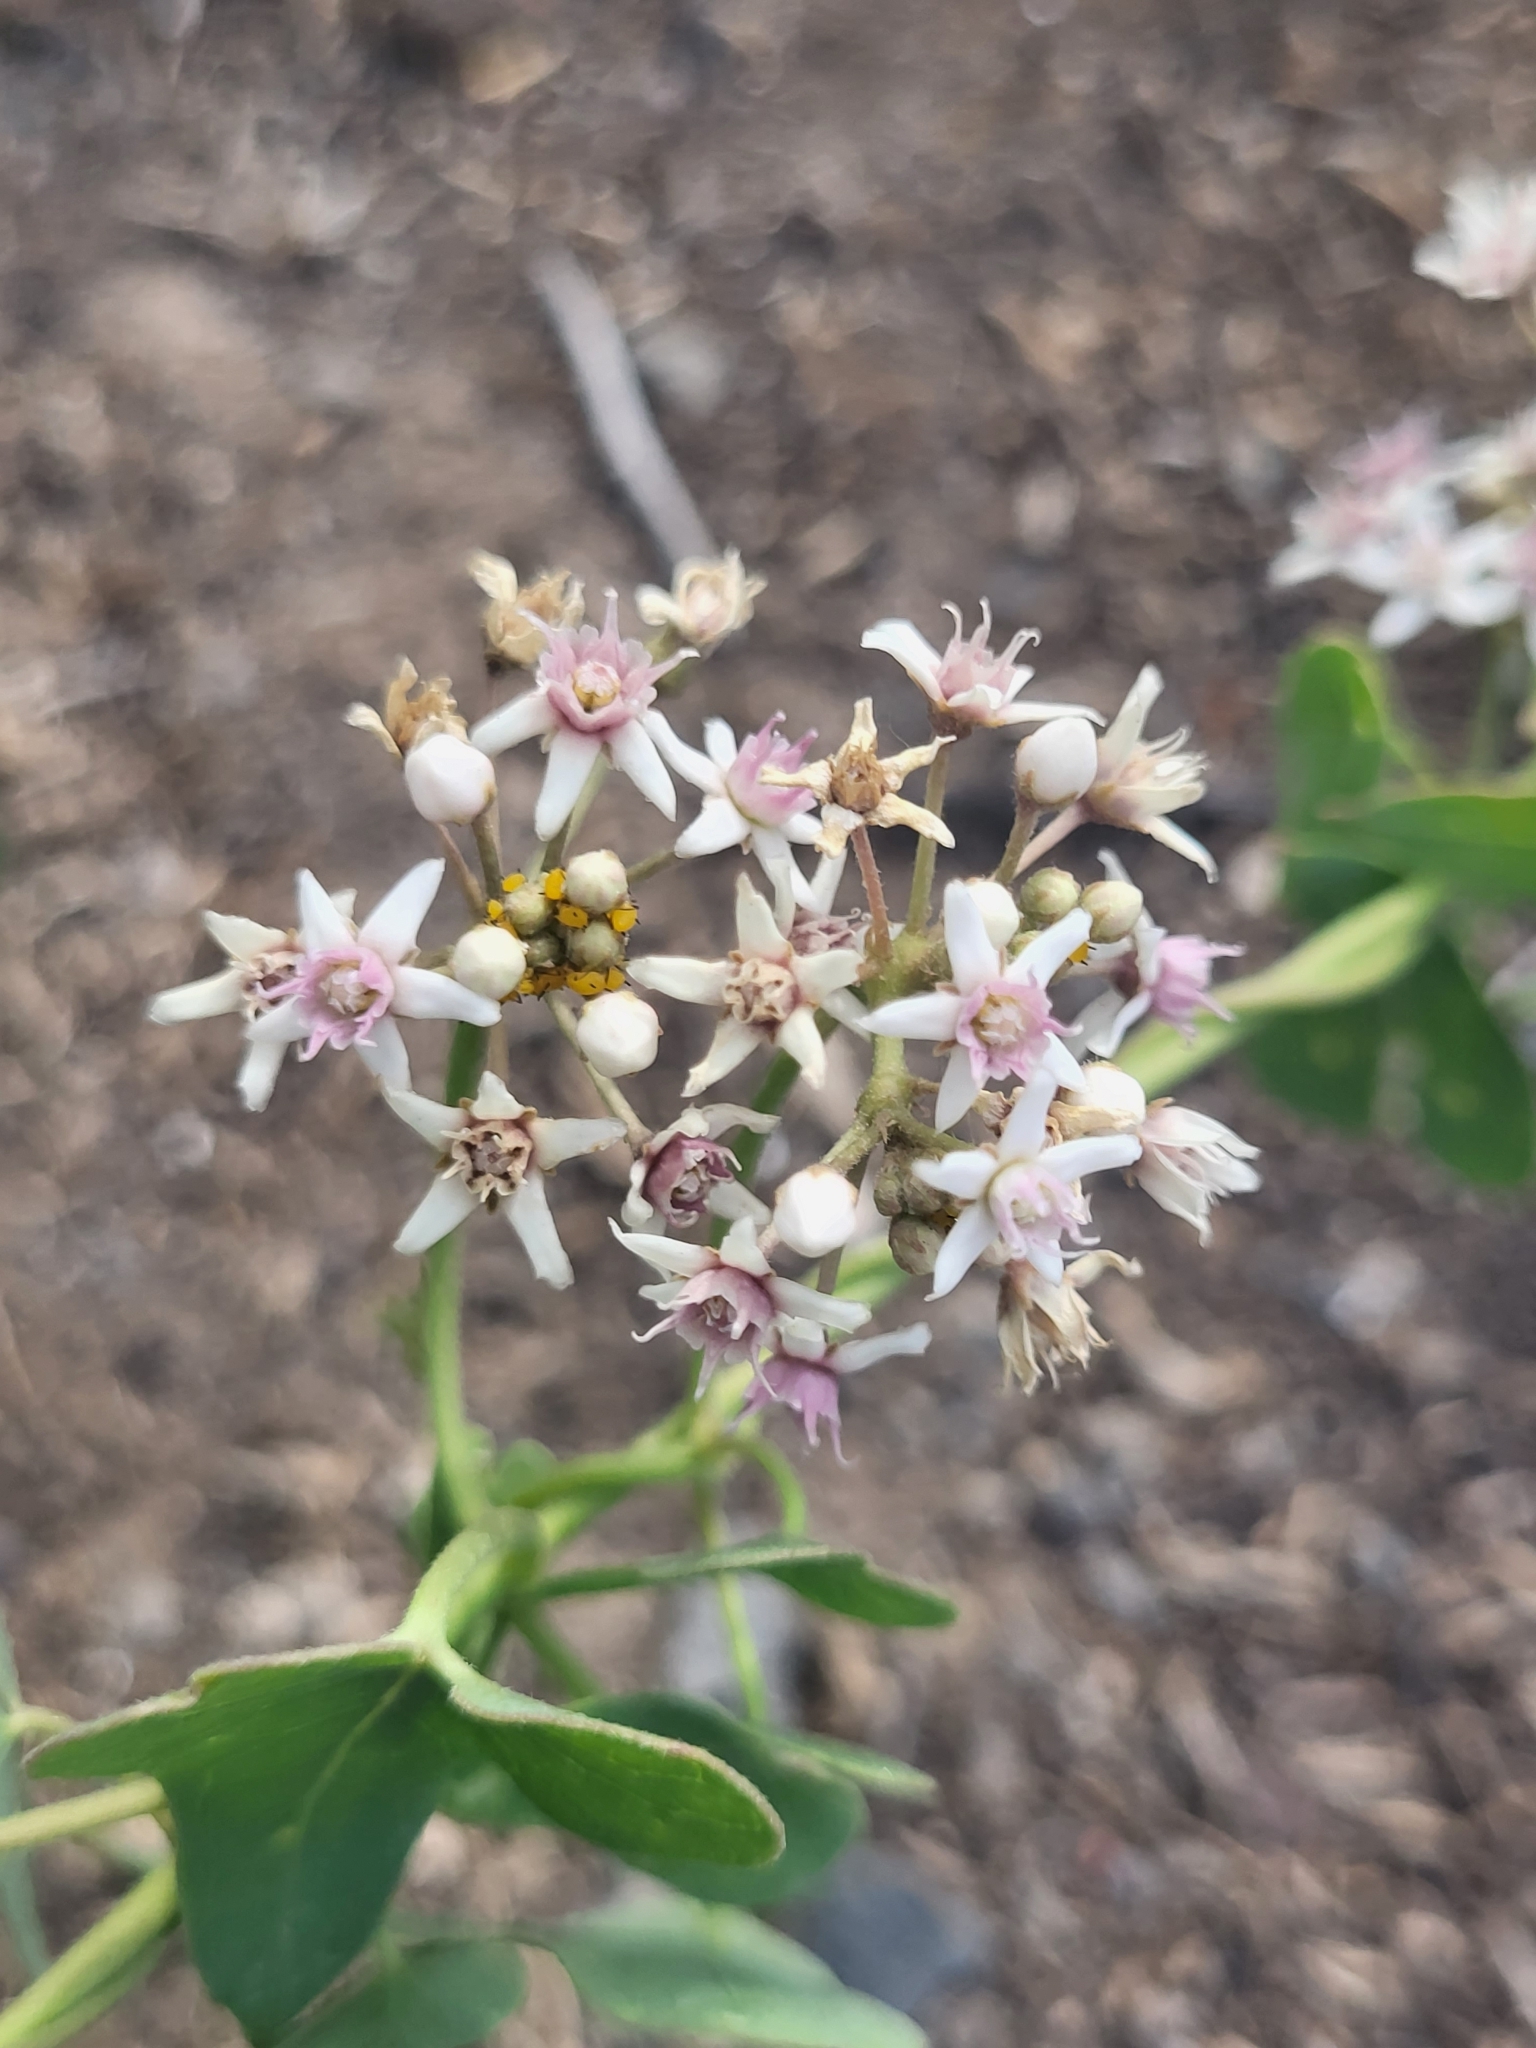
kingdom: Plantae
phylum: Tracheophyta
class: Magnoliopsida
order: Gentianales
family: Apocynaceae
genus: Cynanchum
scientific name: Cynanchum acutum
